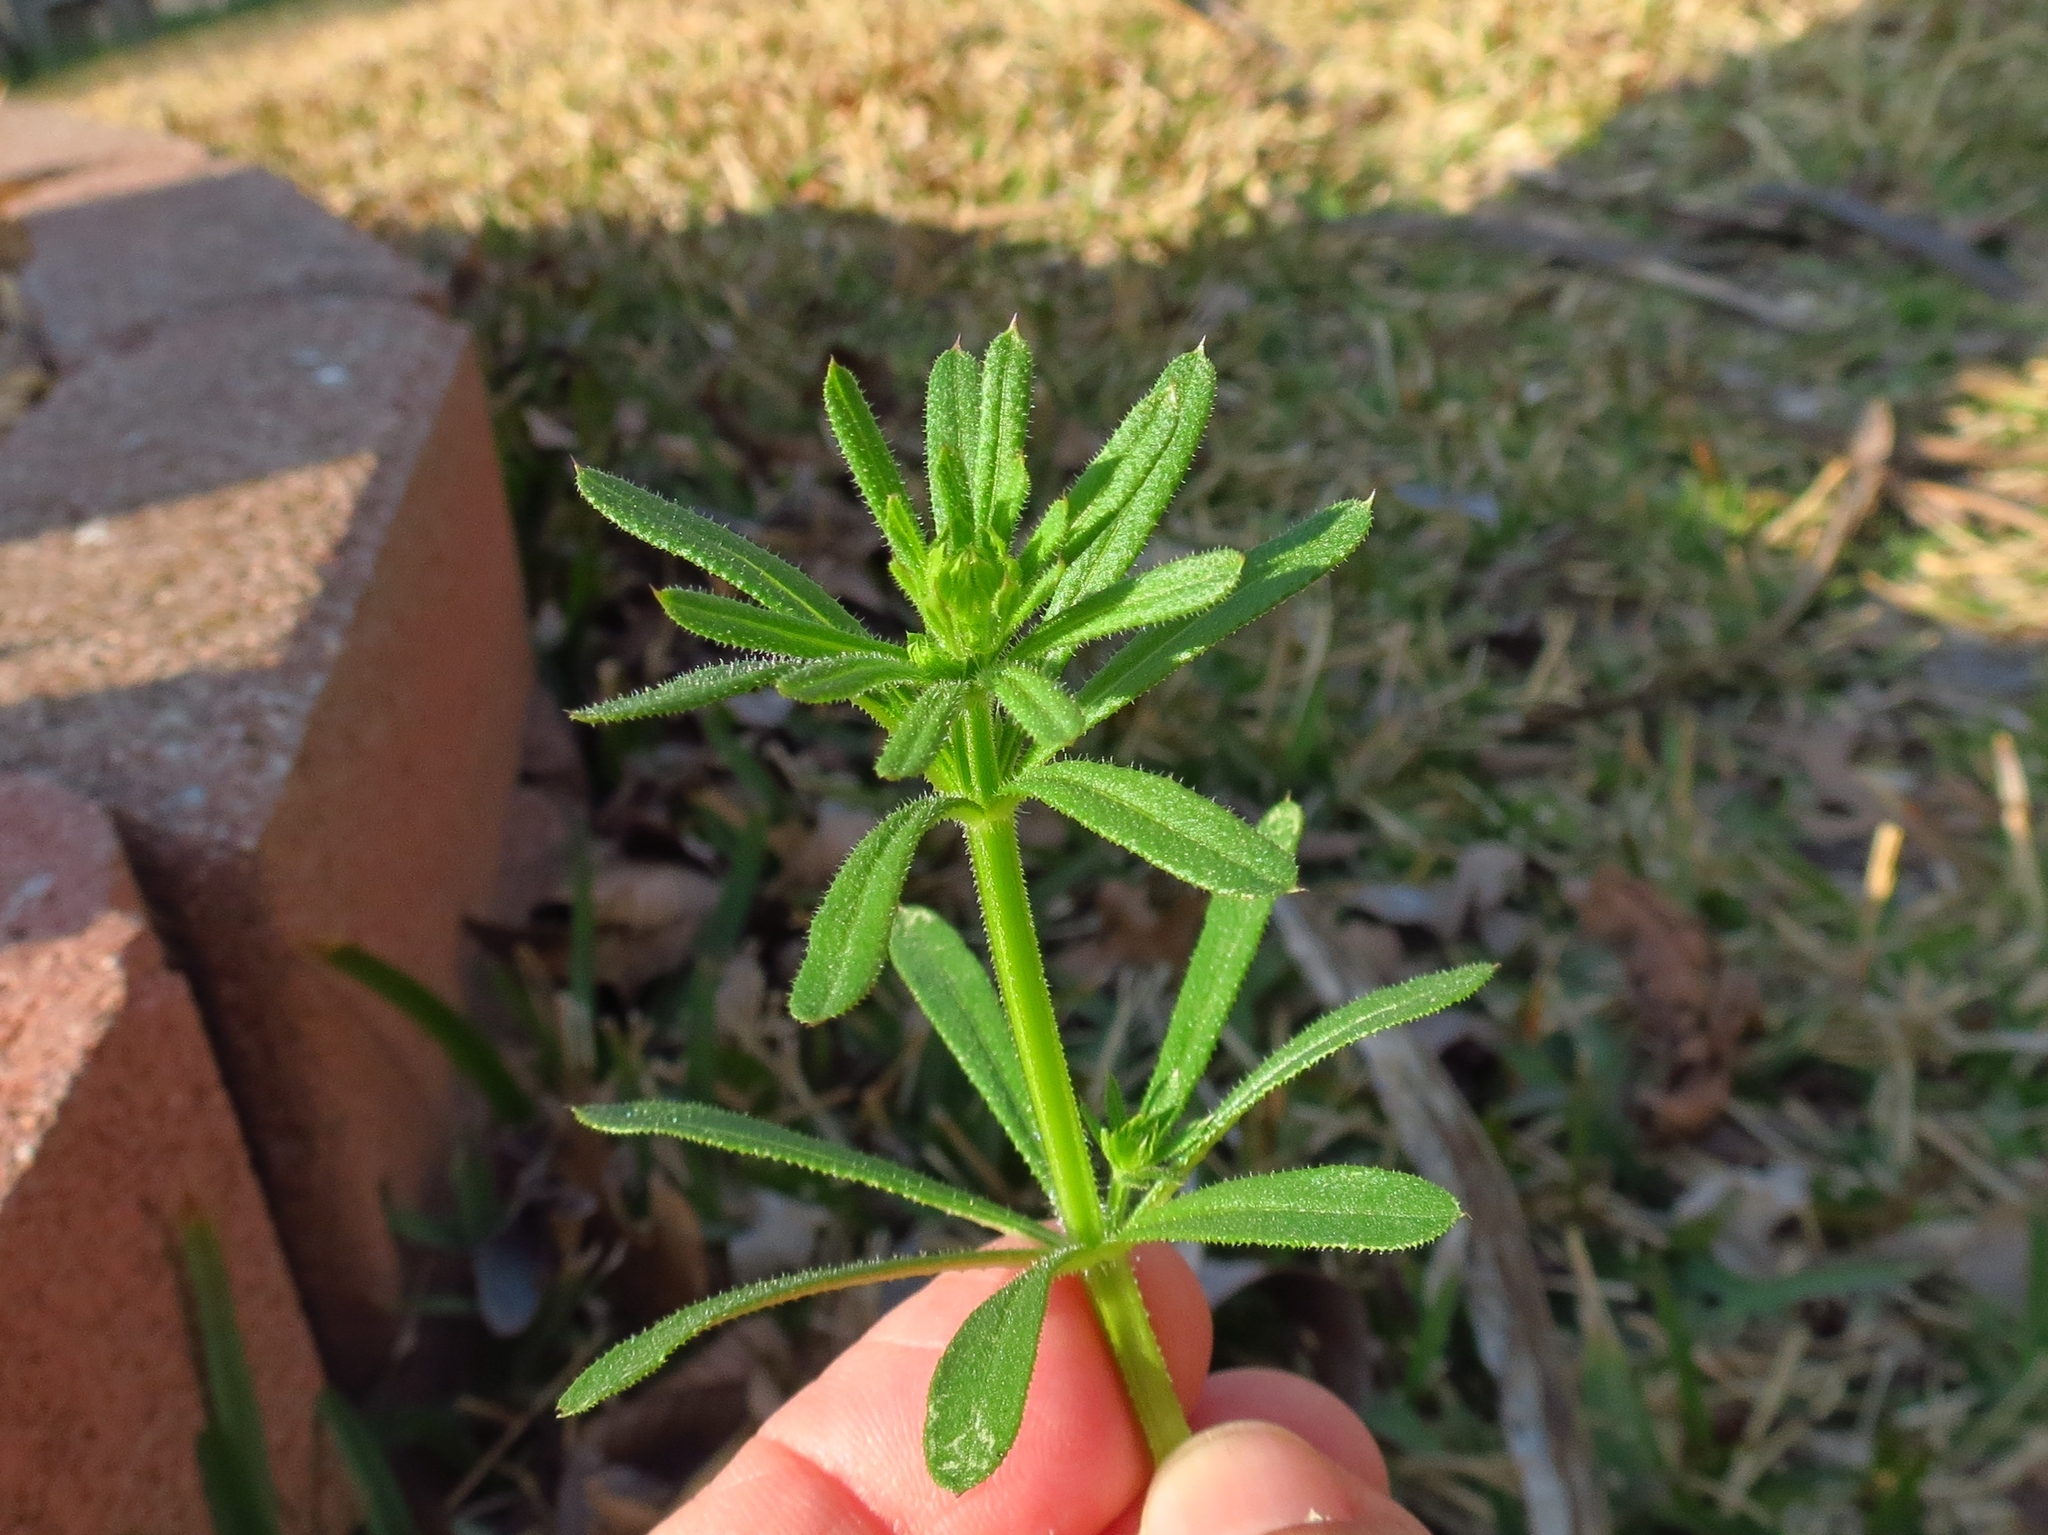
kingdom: Plantae
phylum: Tracheophyta
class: Magnoliopsida
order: Gentianales
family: Rubiaceae
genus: Galium
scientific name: Galium aparine
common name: Cleavers
